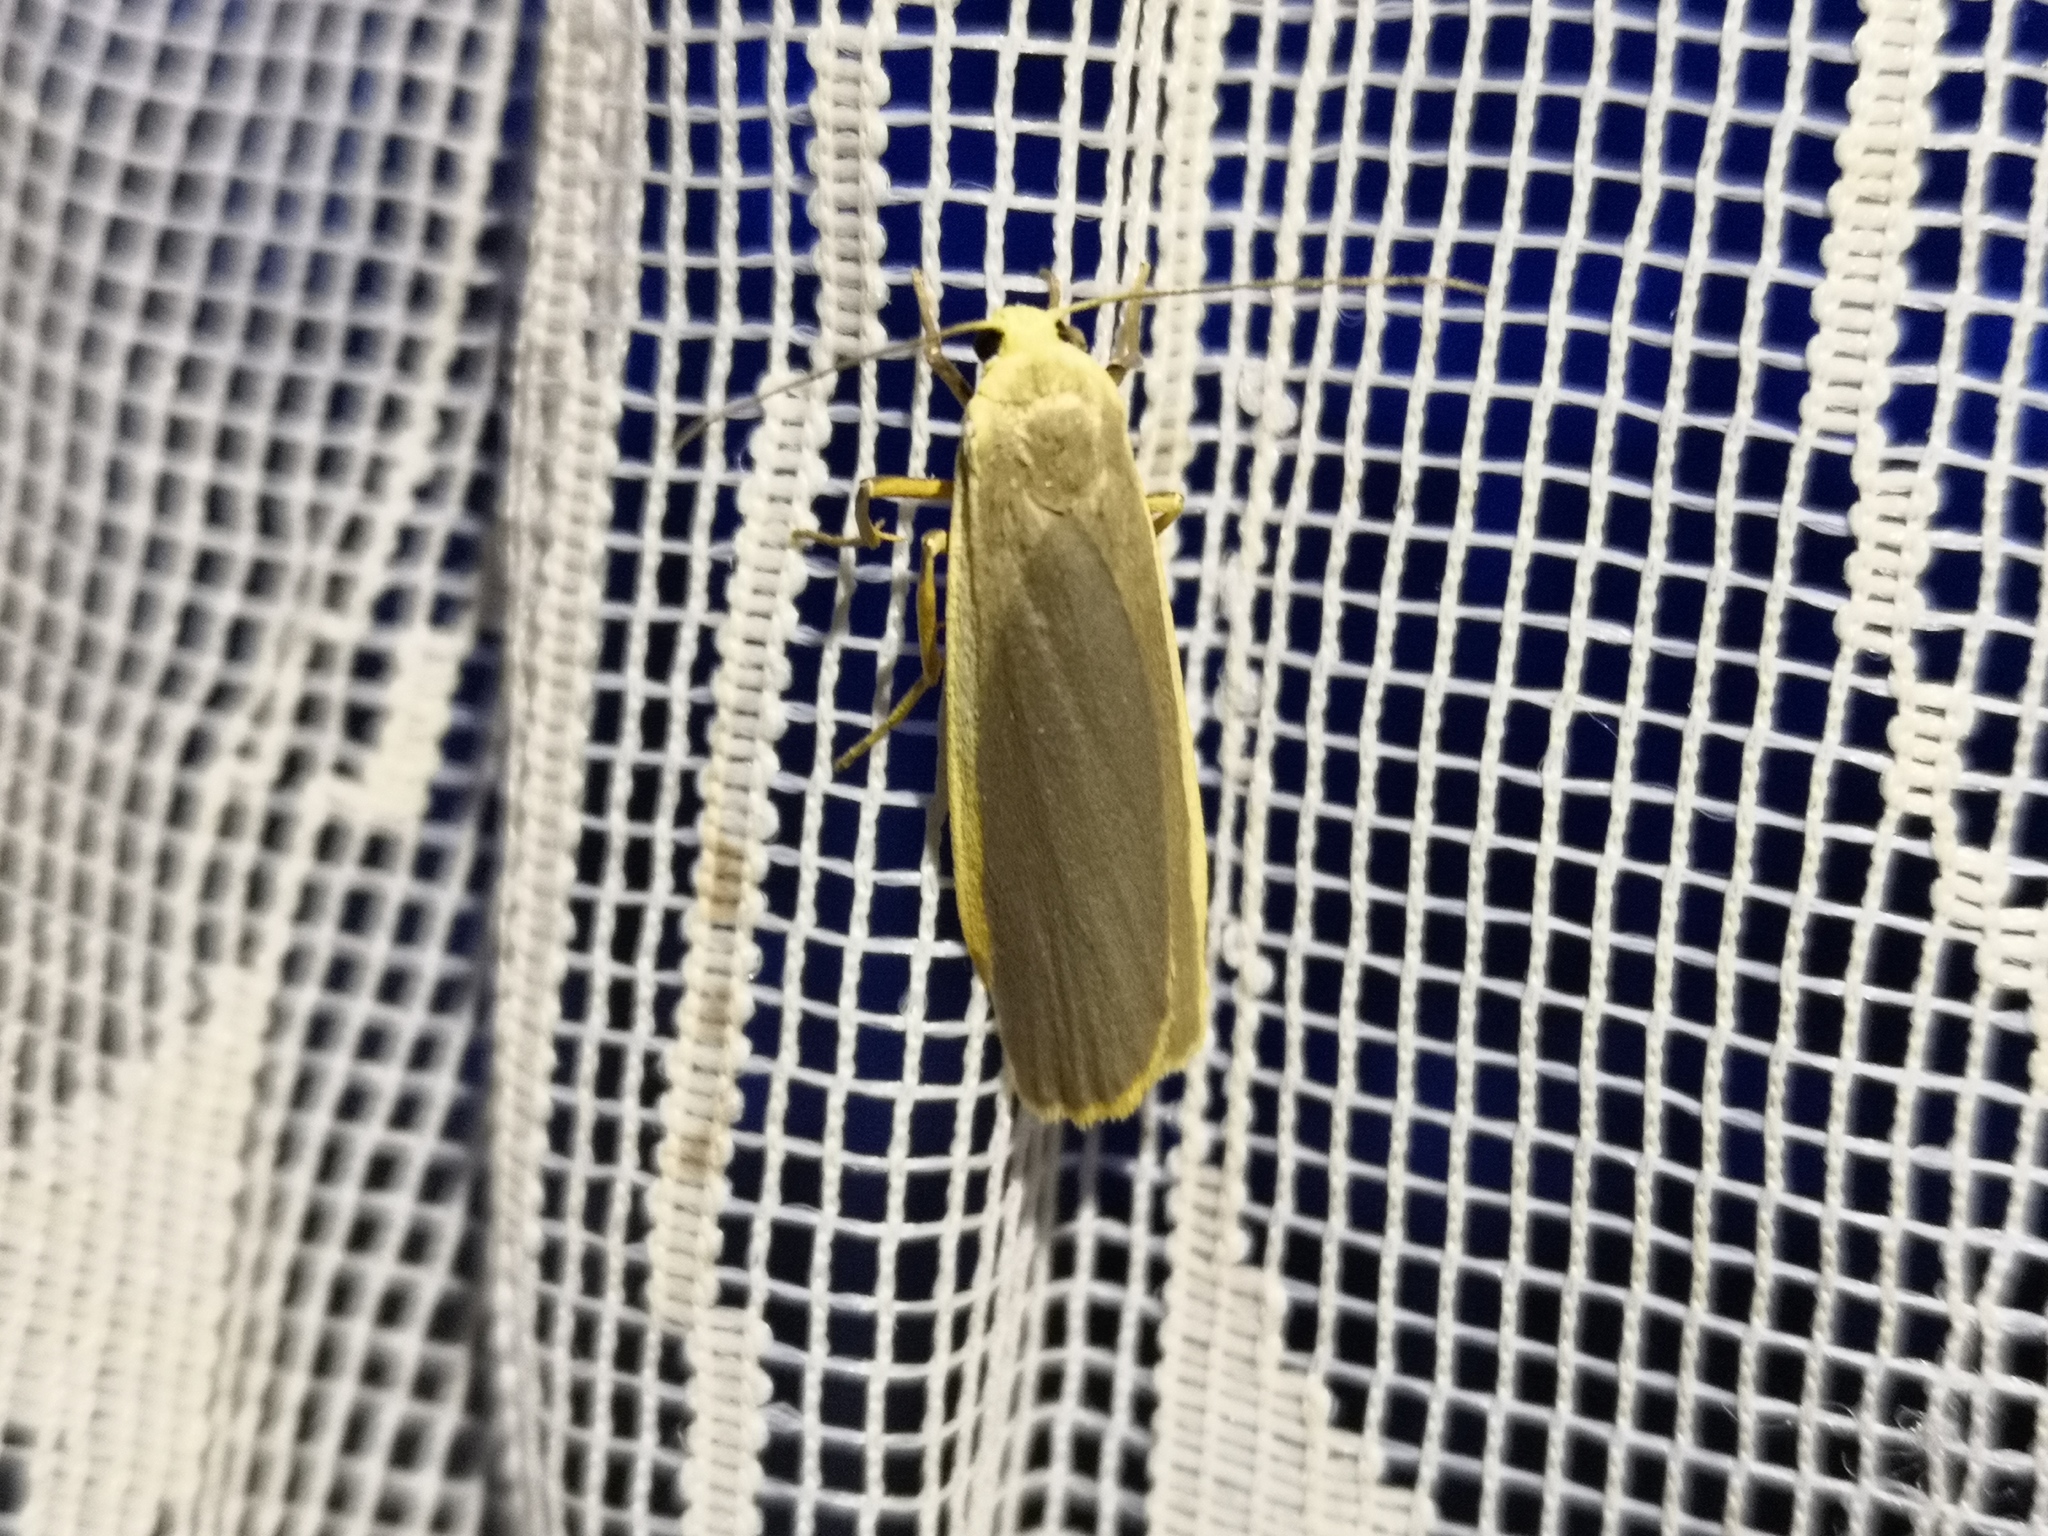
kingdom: Animalia
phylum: Arthropoda
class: Insecta
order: Lepidoptera
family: Erebidae
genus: Nyea
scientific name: Nyea lurideola
